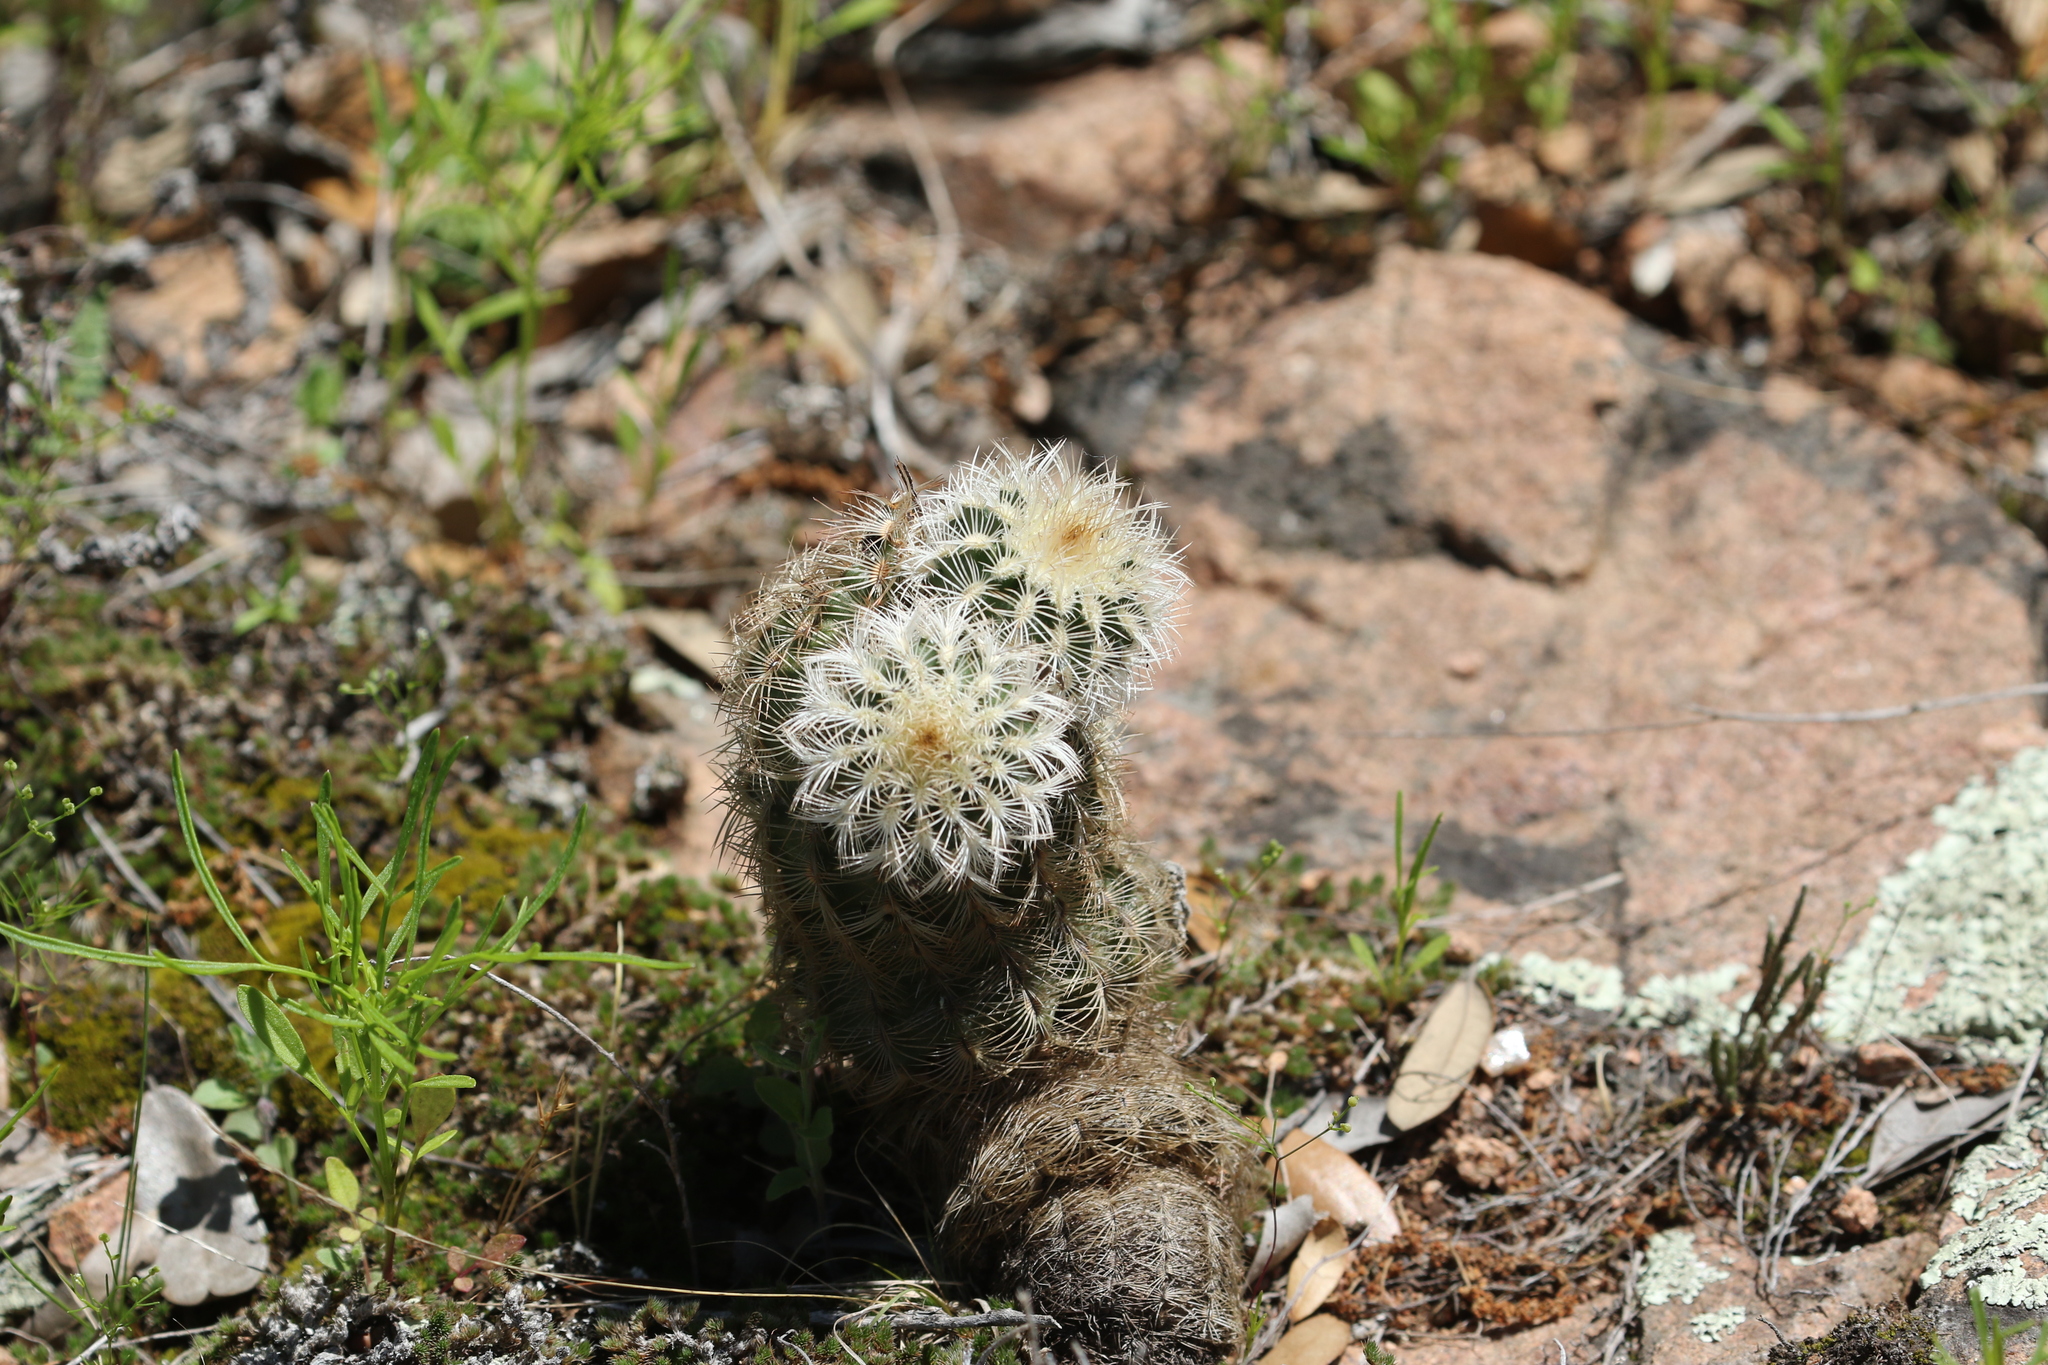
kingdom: Plantae
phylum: Tracheophyta
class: Magnoliopsida
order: Caryophyllales
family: Cactaceae
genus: Echinocereus
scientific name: Echinocereus reichenbachii
